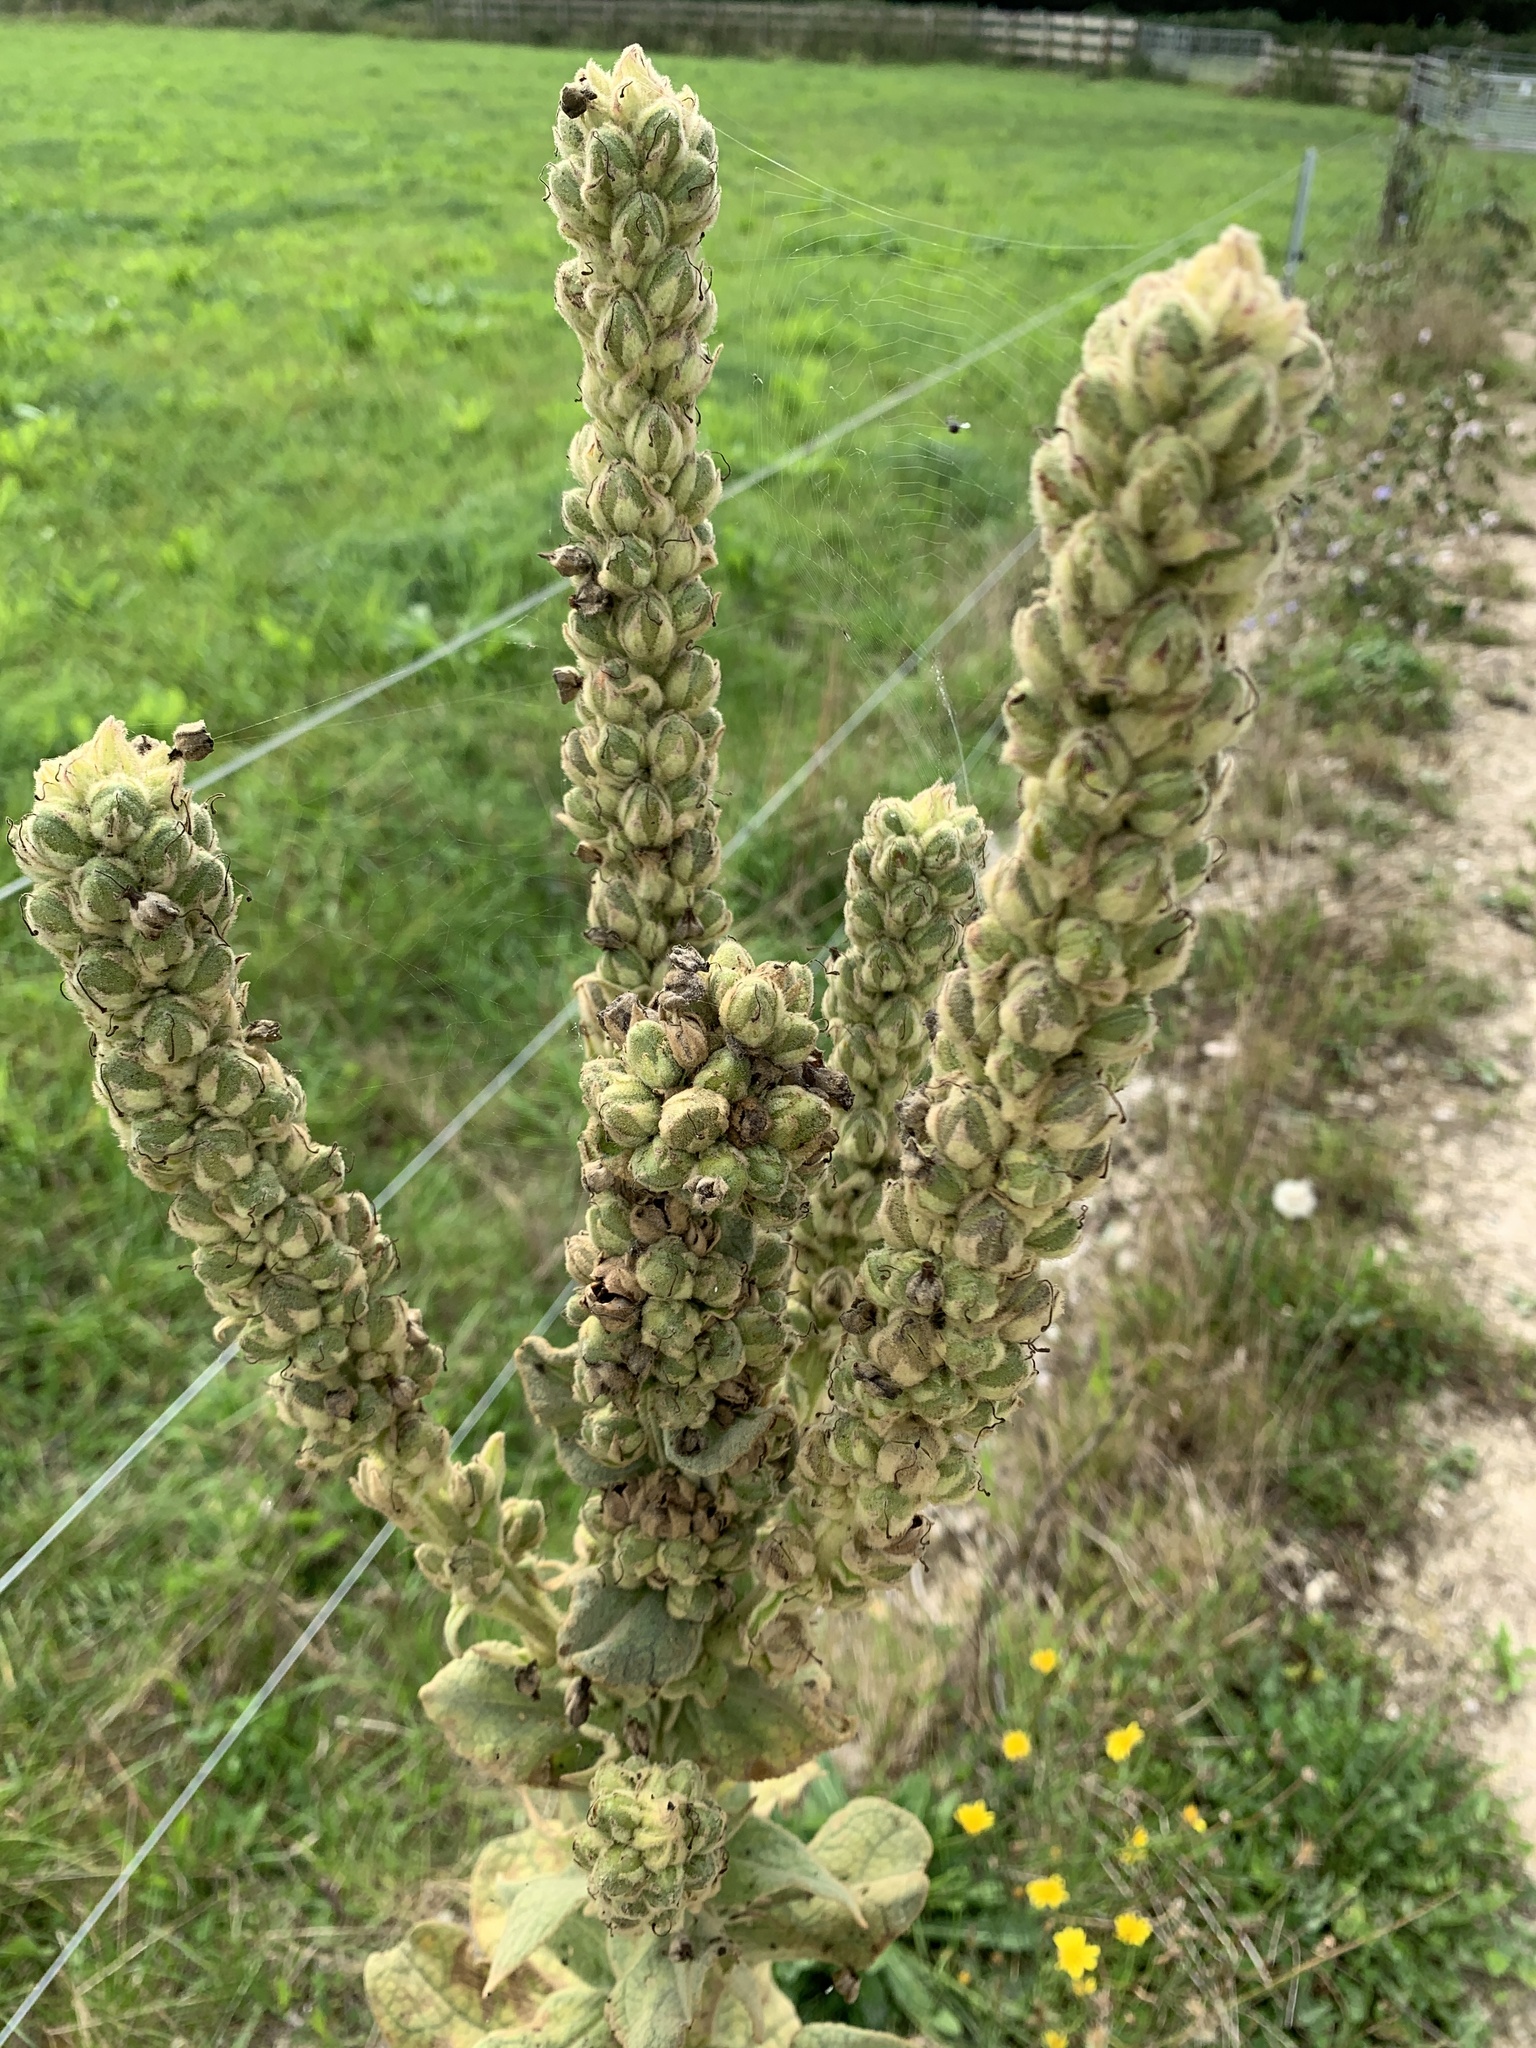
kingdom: Plantae
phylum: Tracheophyta
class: Magnoliopsida
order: Lamiales
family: Scrophulariaceae
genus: Verbascum
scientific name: Verbascum thapsus
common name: Common mullein
